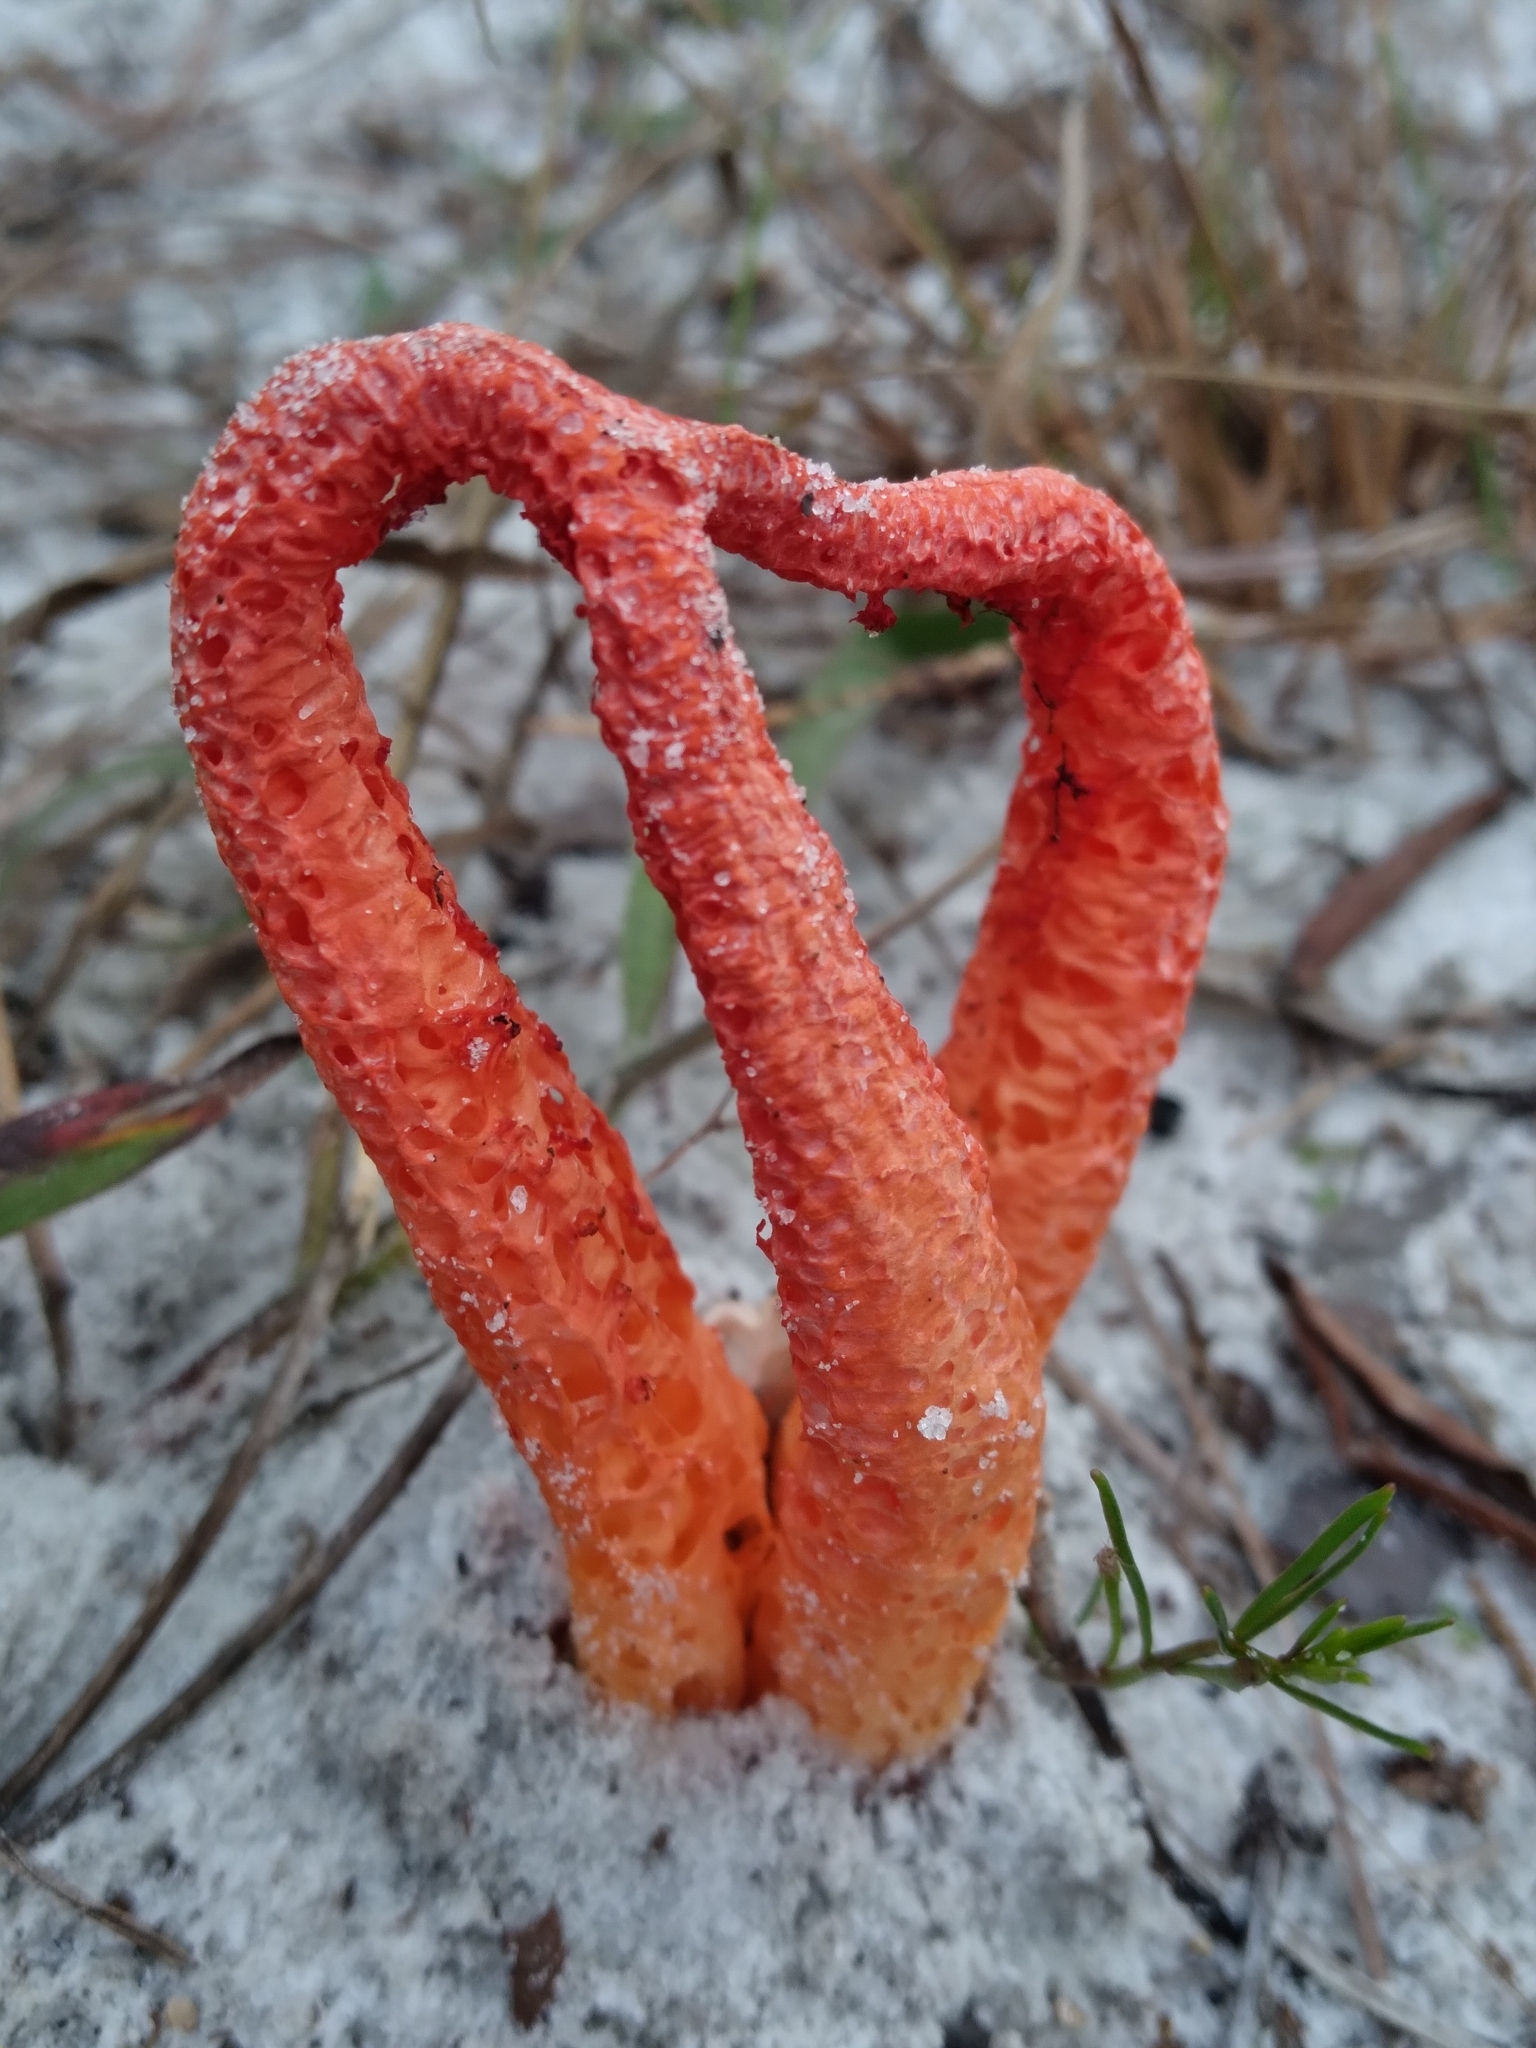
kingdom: Fungi
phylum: Basidiomycota
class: Agaricomycetes
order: Phallales
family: Phallaceae
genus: Clathrus
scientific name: Clathrus columnatus
